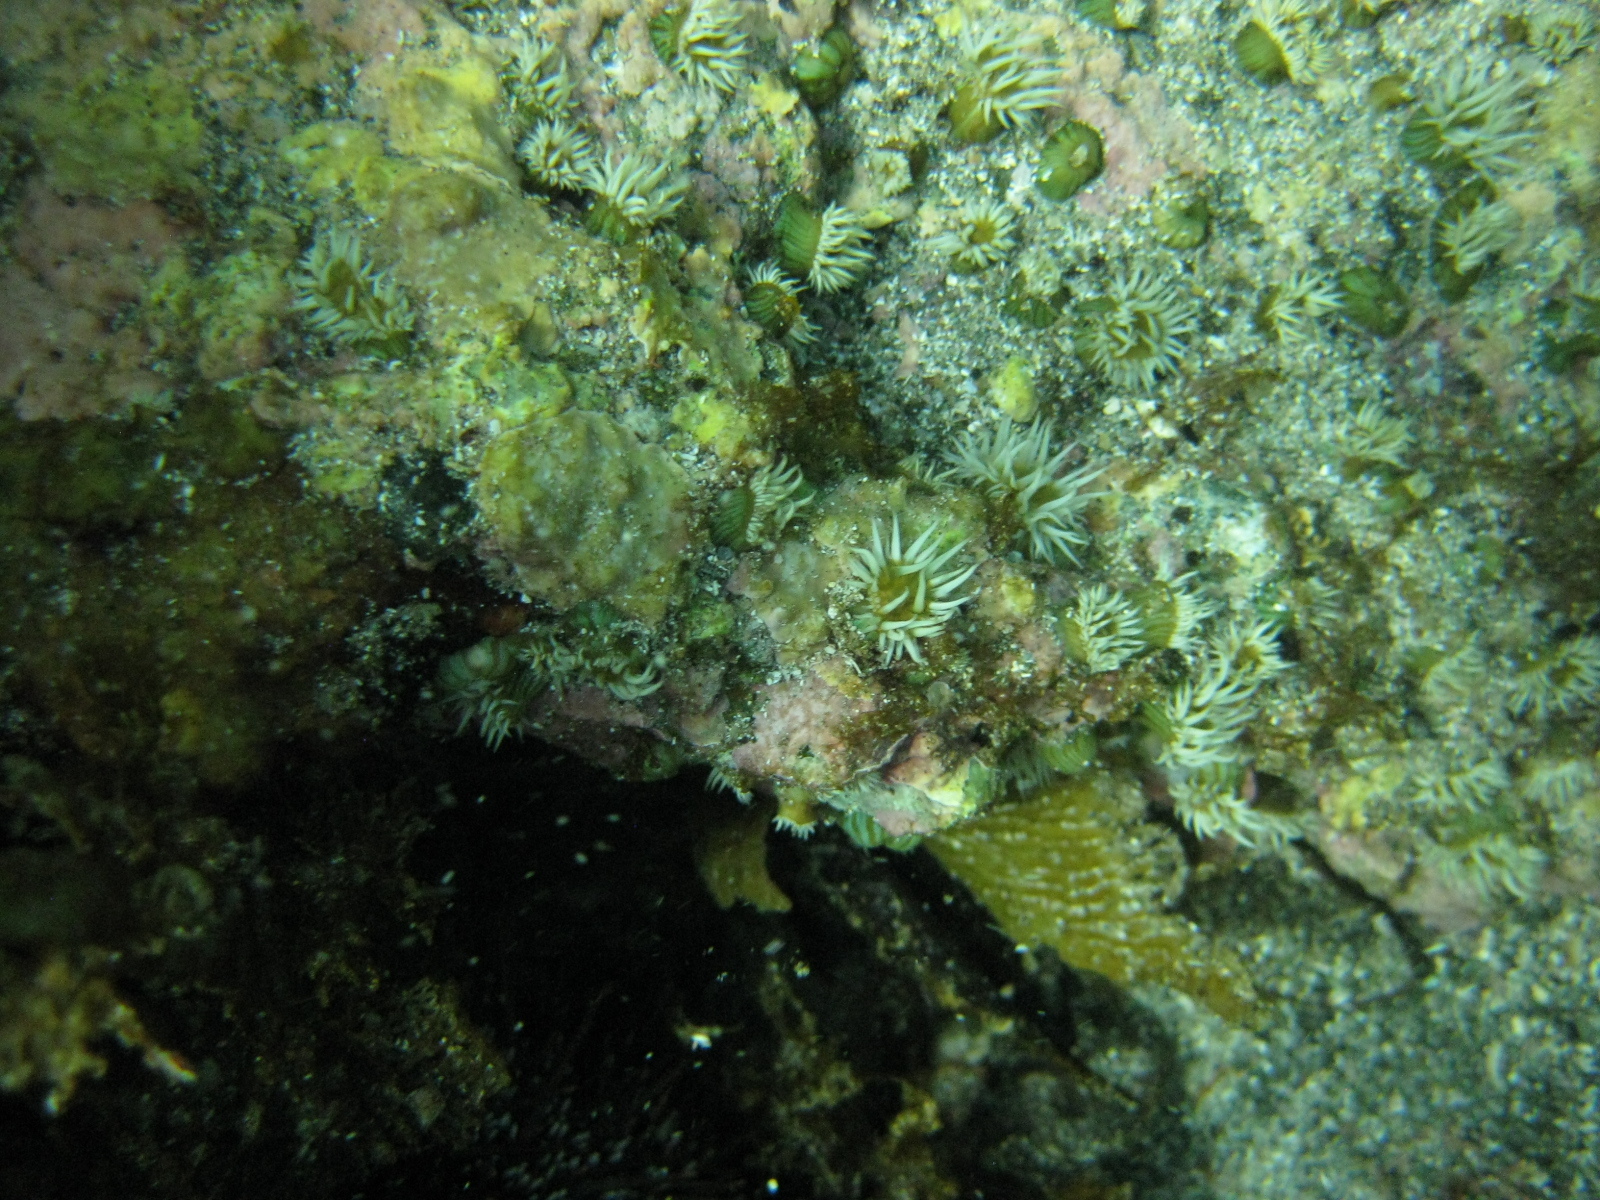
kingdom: Animalia
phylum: Cnidaria
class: Anthozoa
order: Actiniaria
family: Sagartiidae
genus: Anthothoe
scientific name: Anthothoe albocincta
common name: Orange striped anemone
